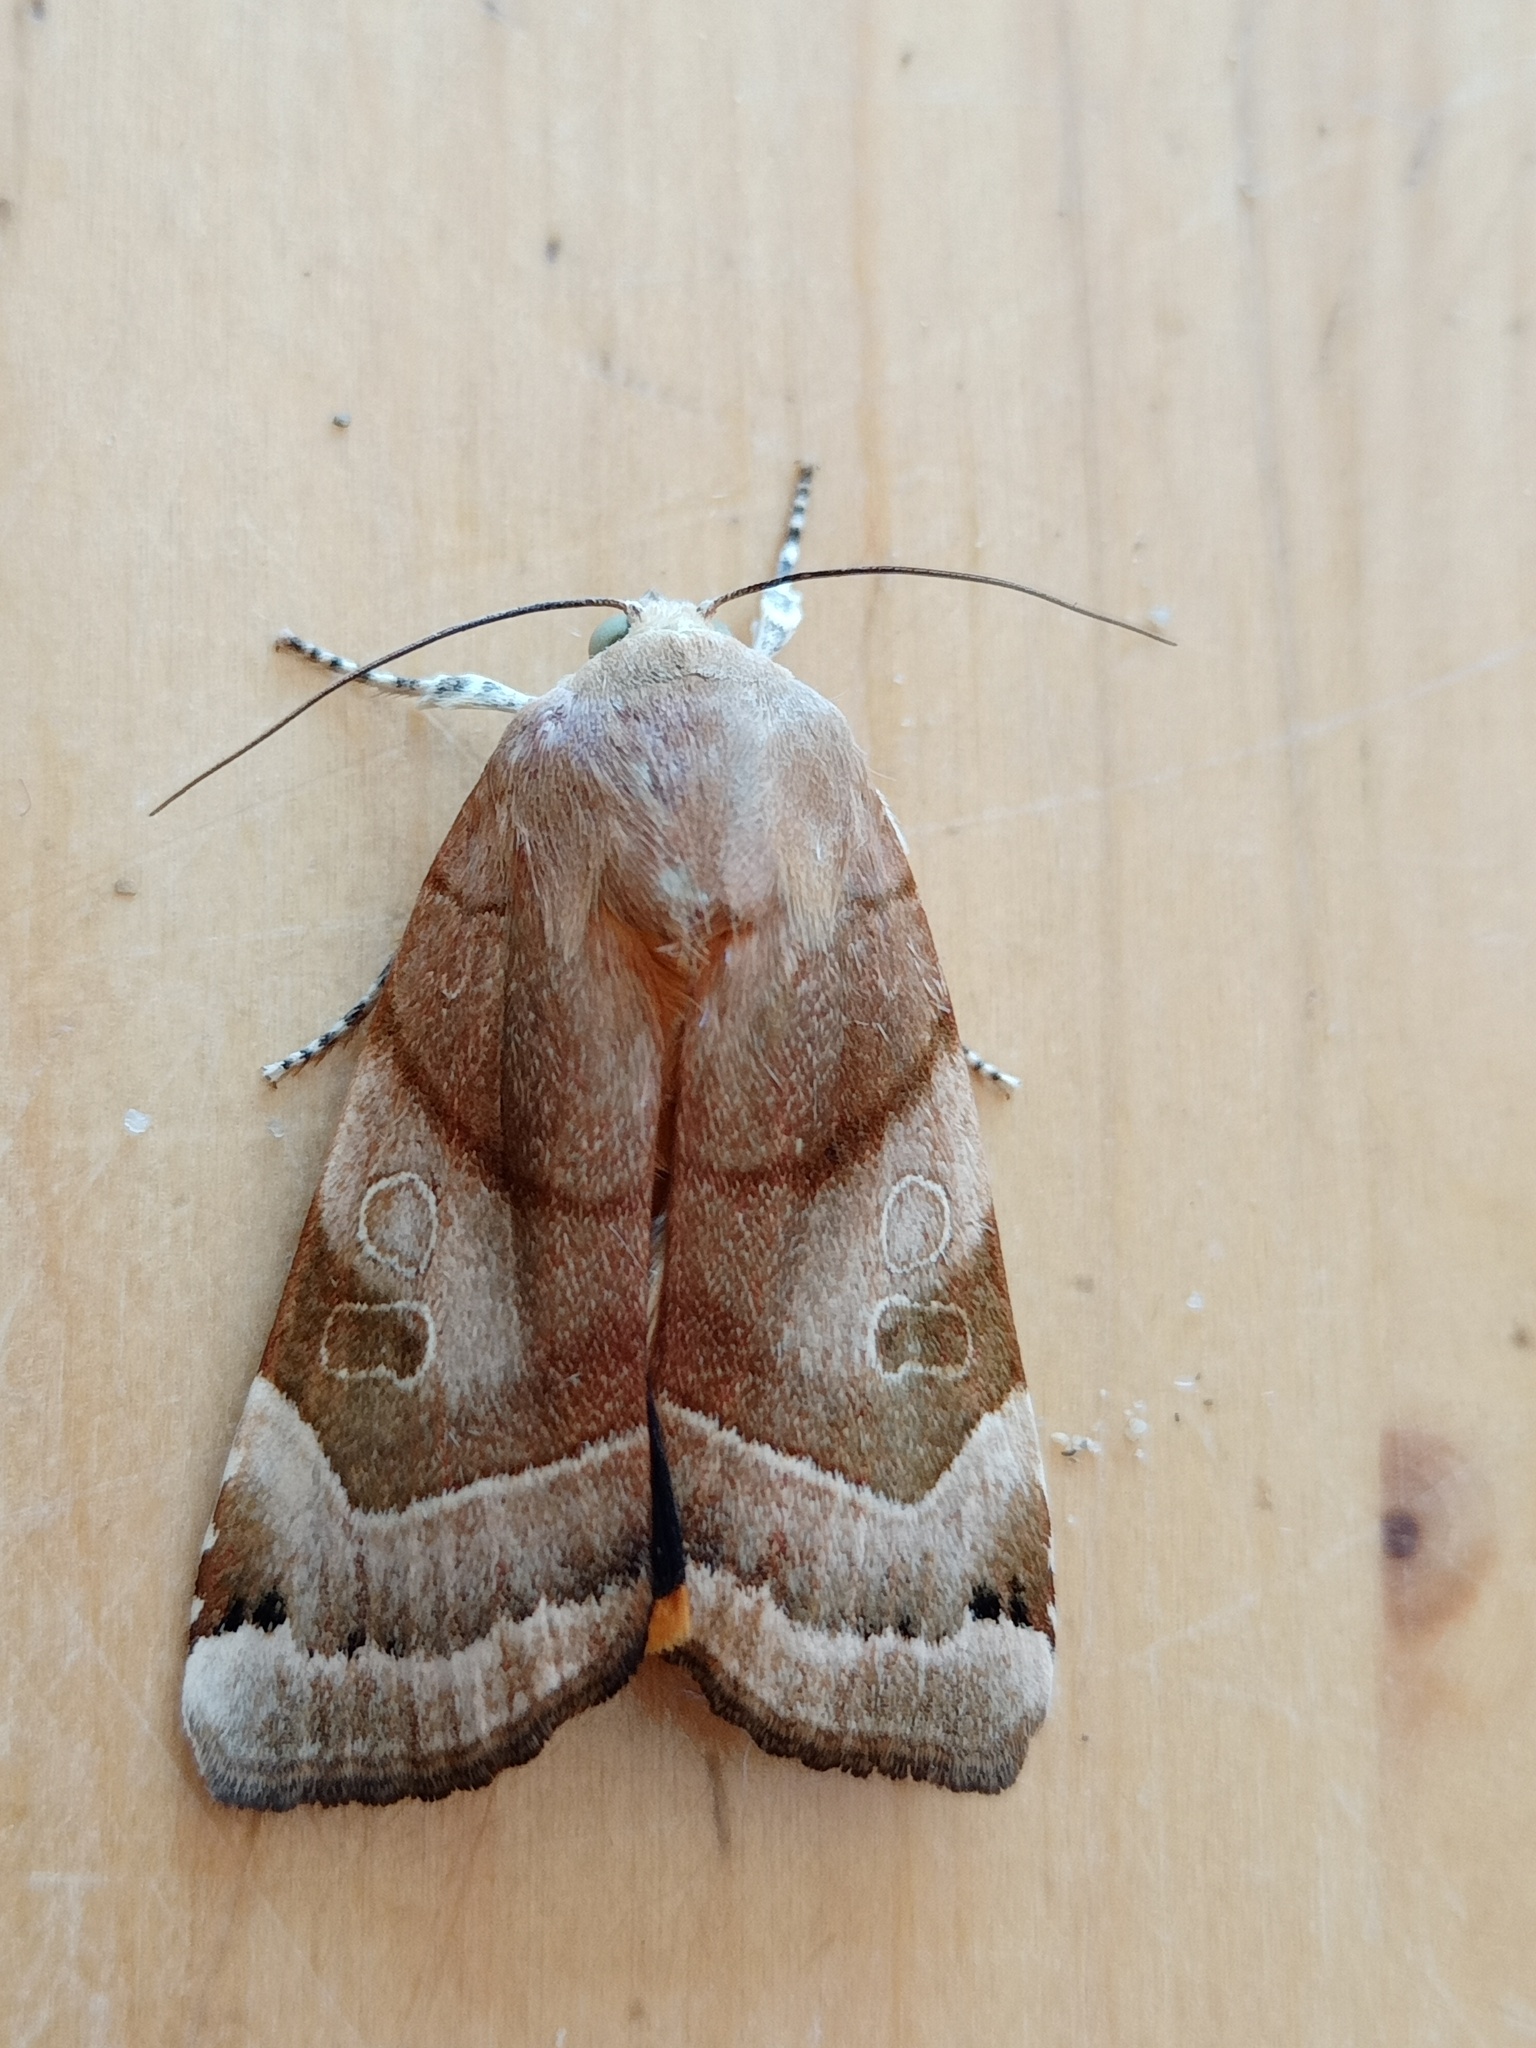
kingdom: Animalia
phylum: Arthropoda
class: Insecta
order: Lepidoptera
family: Noctuidae
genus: Noctua
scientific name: Noctua fimbriata
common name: Broad-bordered yellow underwing
